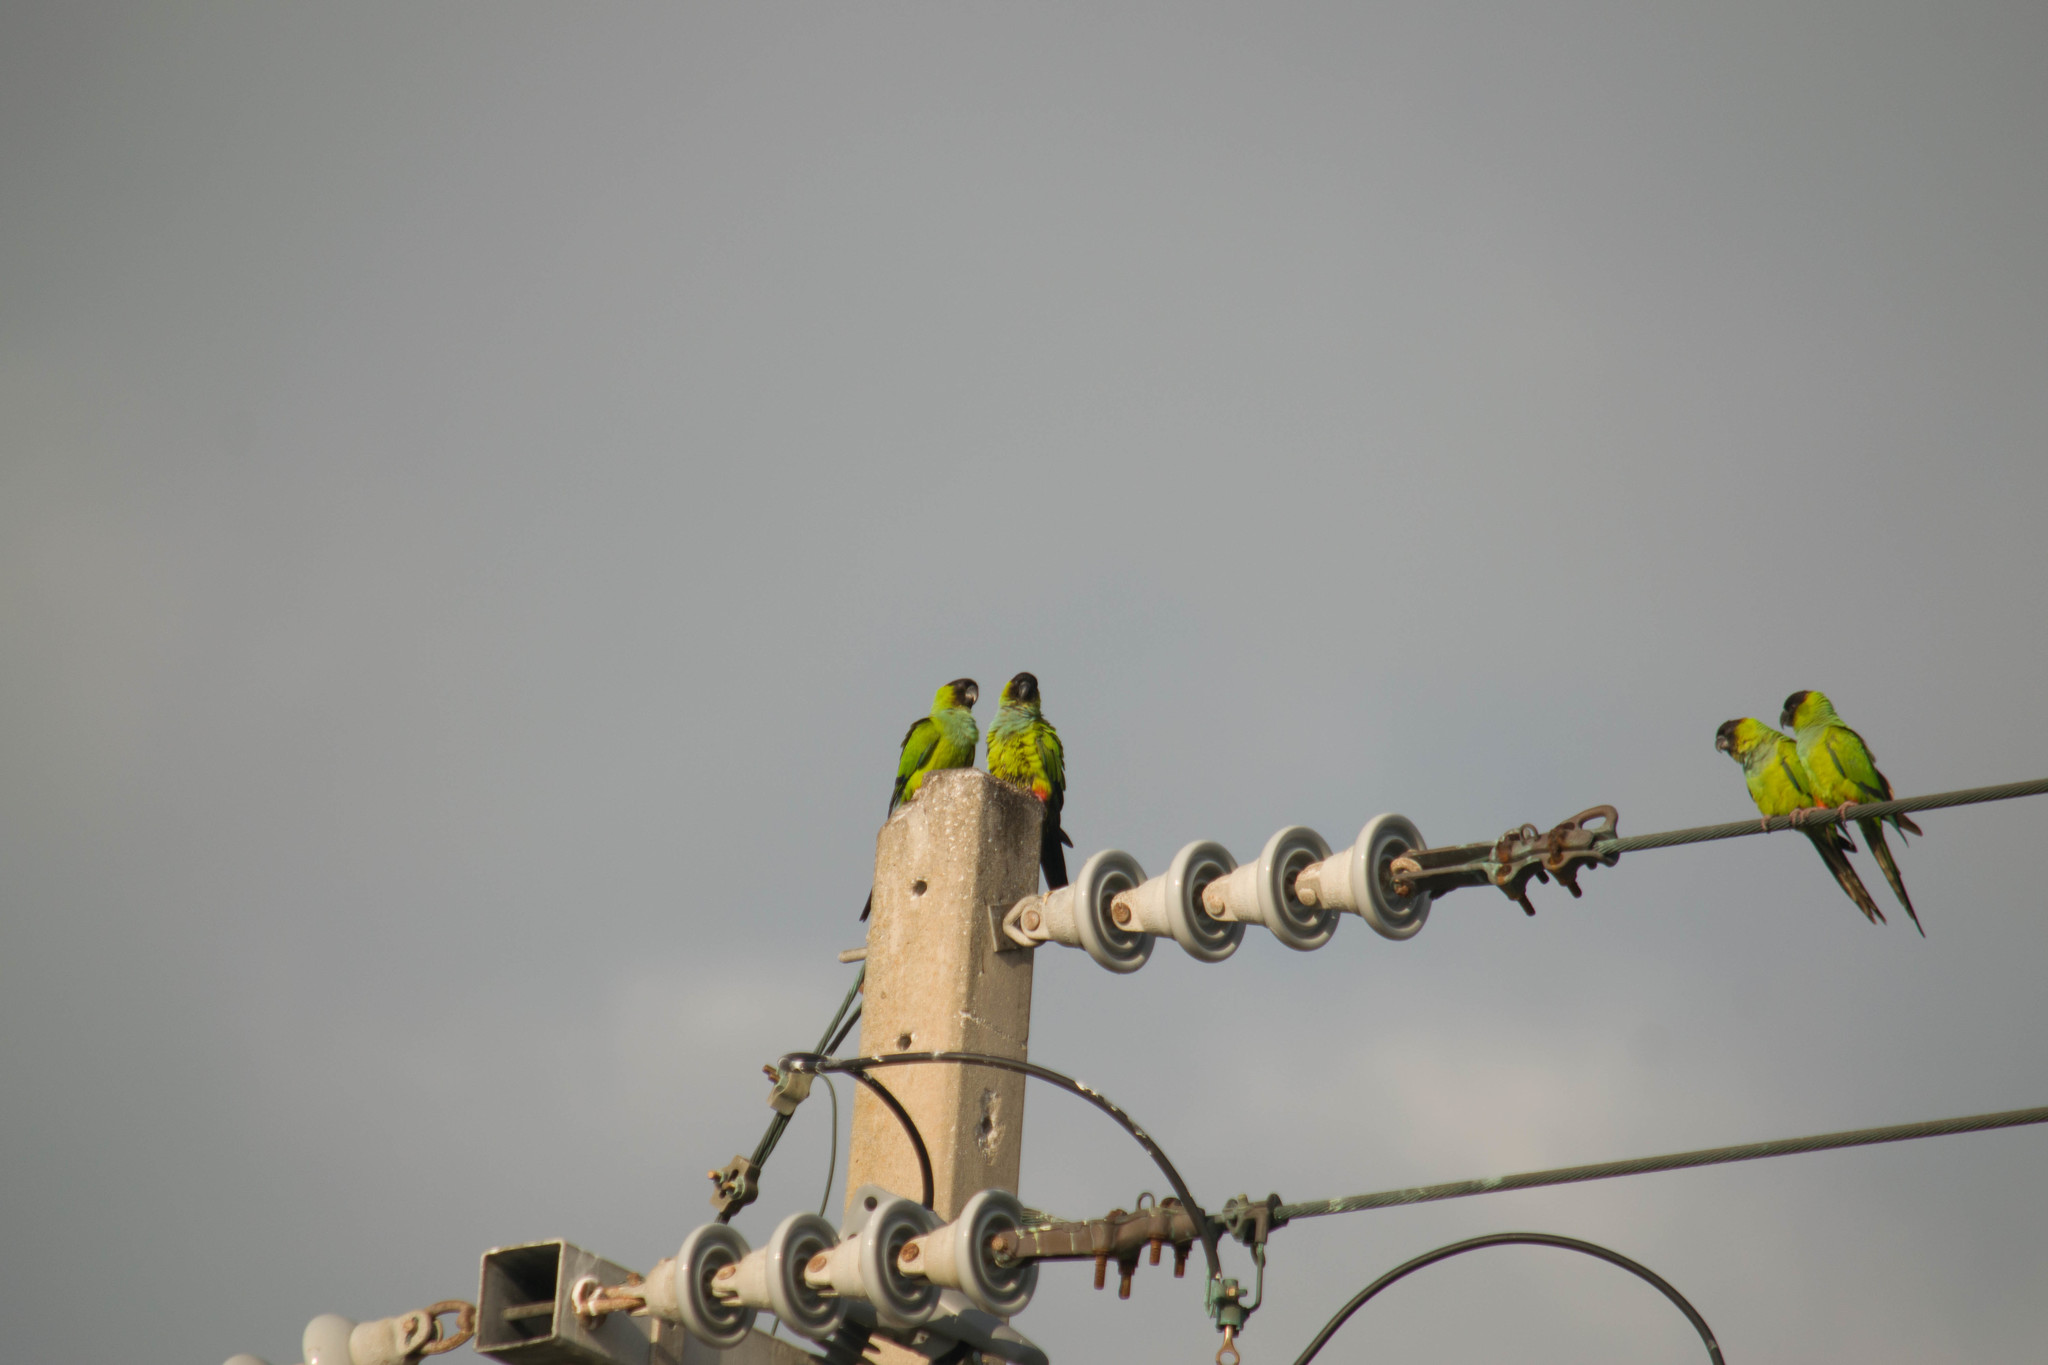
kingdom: Animalia
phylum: Chordata
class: Aves
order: Psittaciformes
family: Psittacidae
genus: Nandayus
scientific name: Nandayus nenday
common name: Nanday parakeet
